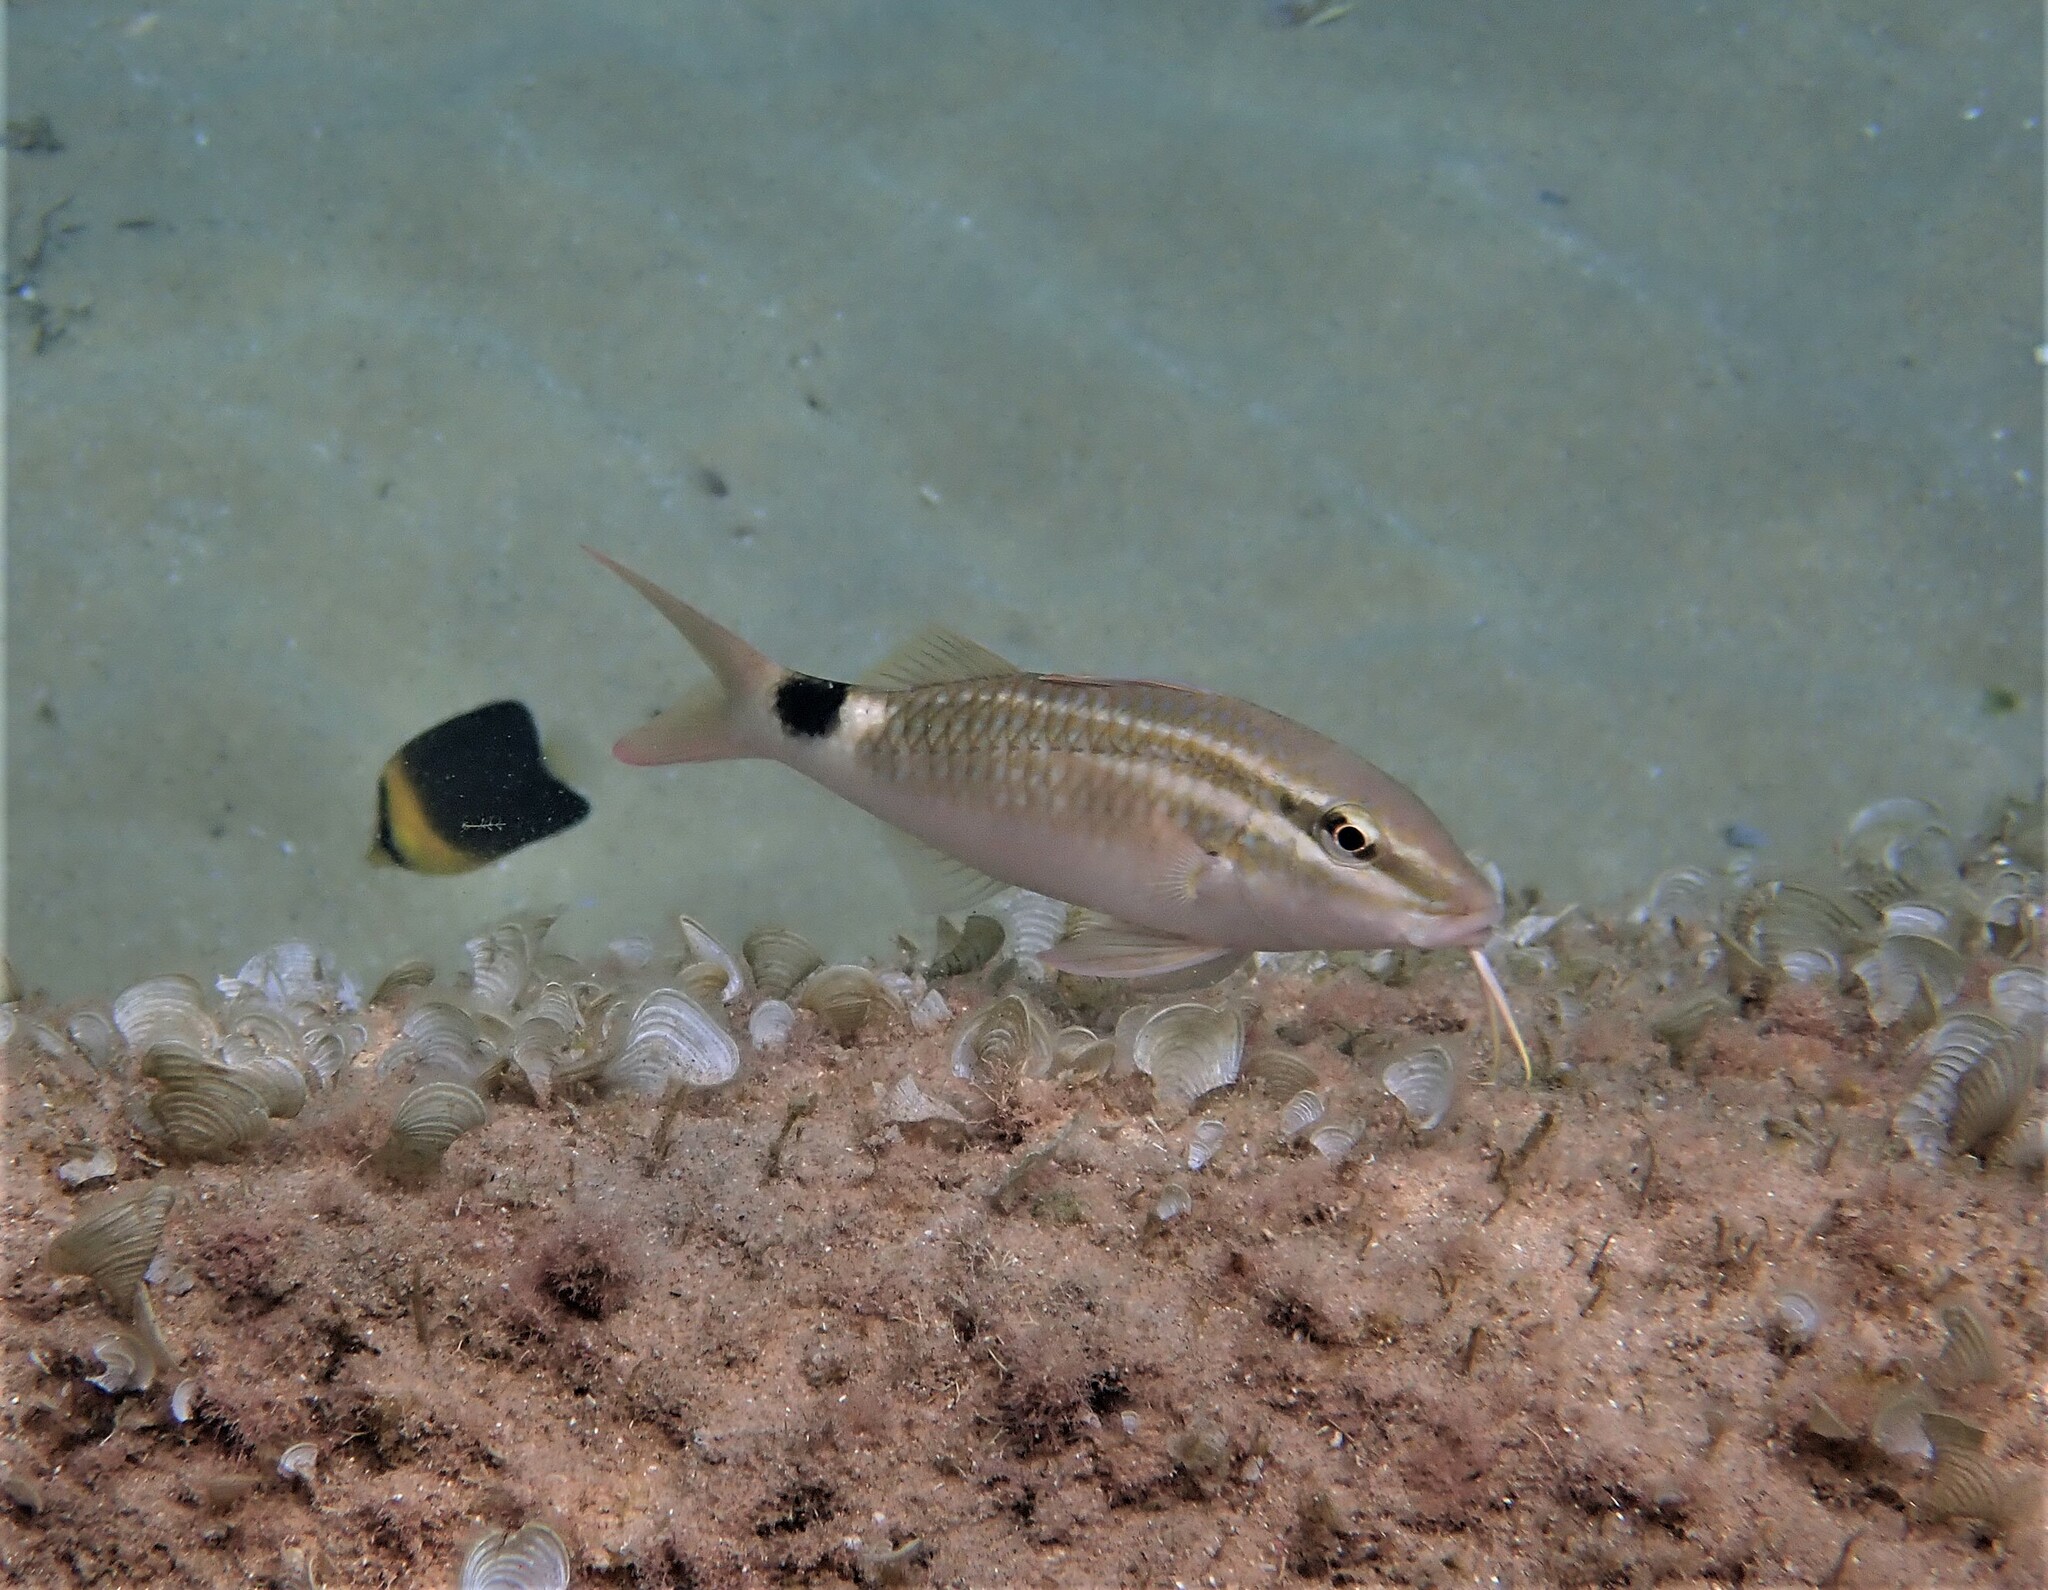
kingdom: Animalia
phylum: Chordata
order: Perciformes
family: Mullidae
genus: Parupeneus
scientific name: Parupeneus rubescens
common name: Rosy goatfish
